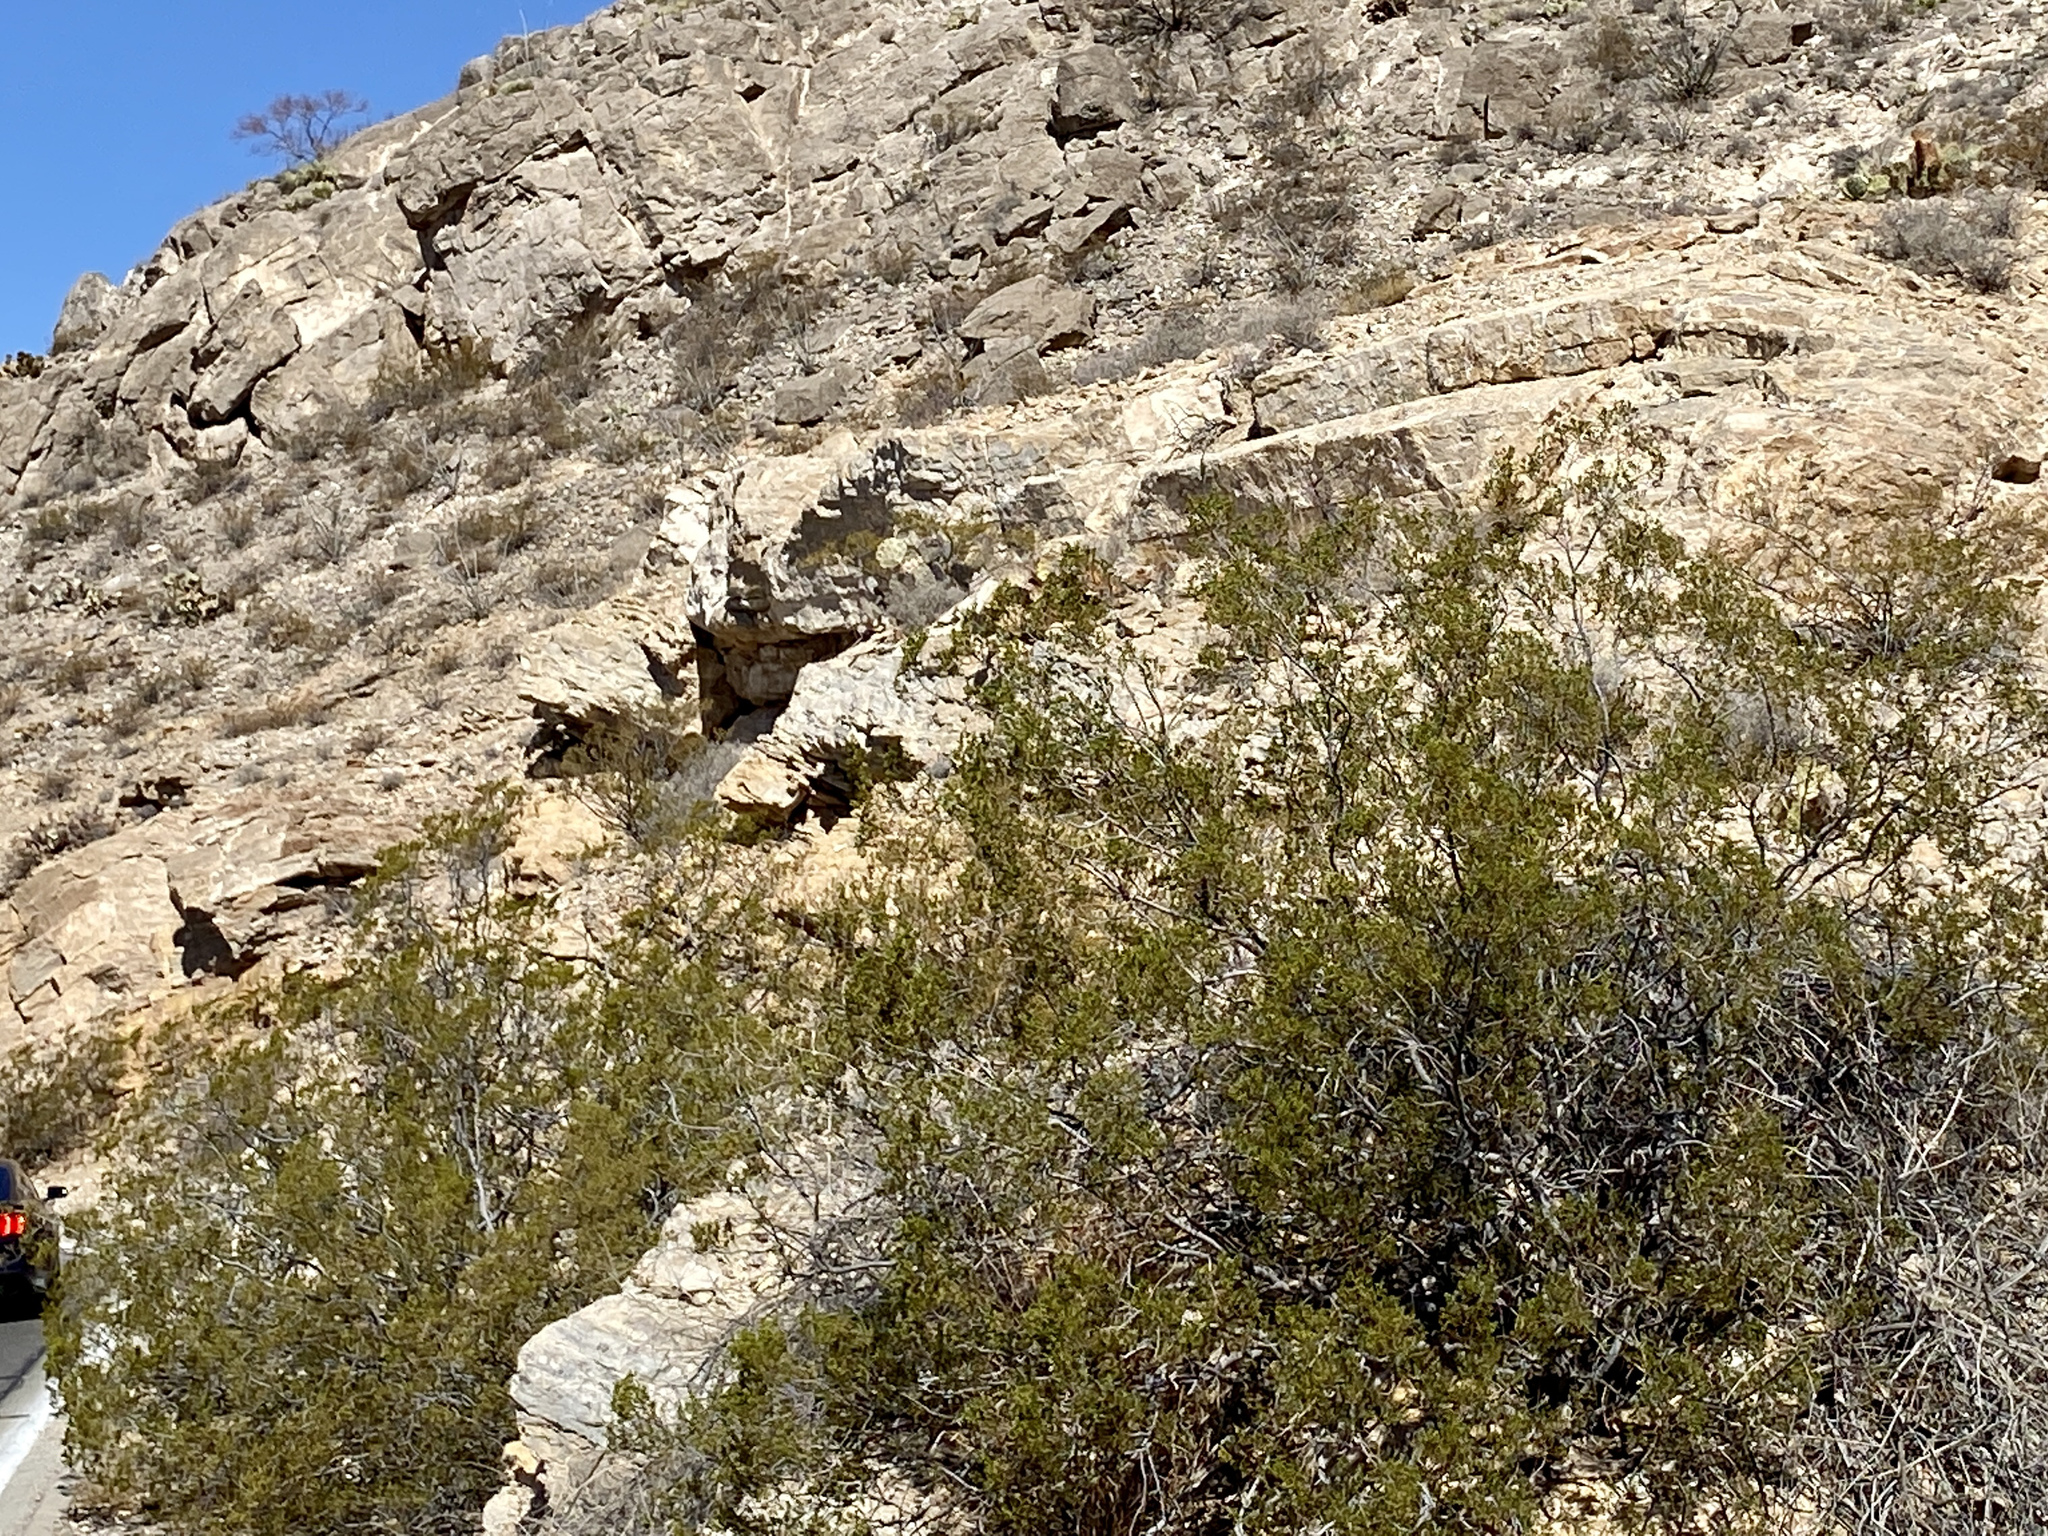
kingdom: Plantae
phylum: Tracheophyta
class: Magnoliopsida
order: Zygophyllales
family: Zygophyllaceae
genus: Larrea
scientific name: Larrea tridentata
